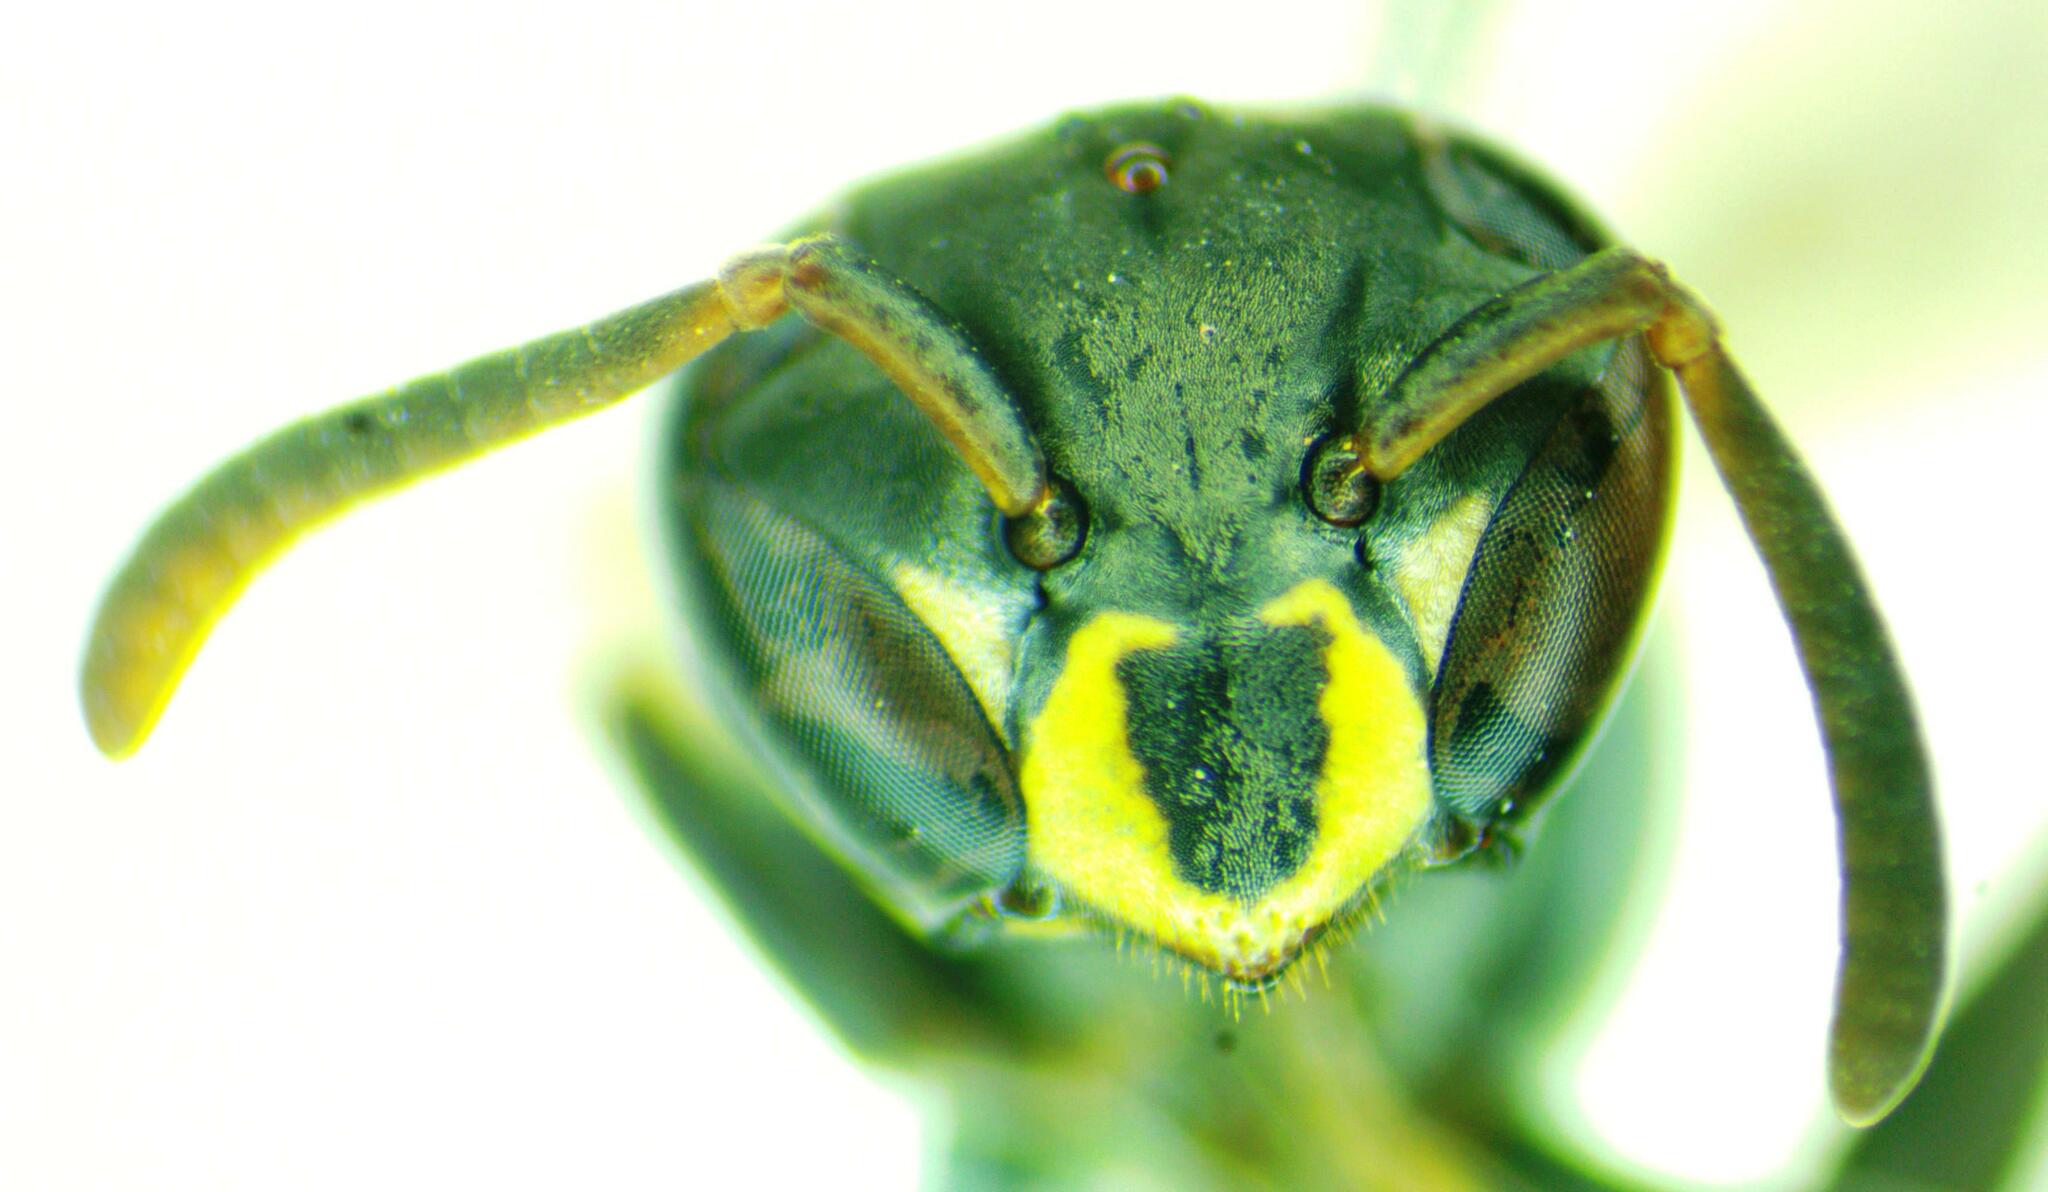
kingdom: Animalia
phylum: Arthropoda
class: Insecta
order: Hymenoptera
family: Eumenidae
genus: Polybia
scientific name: Polybia occidentalis
